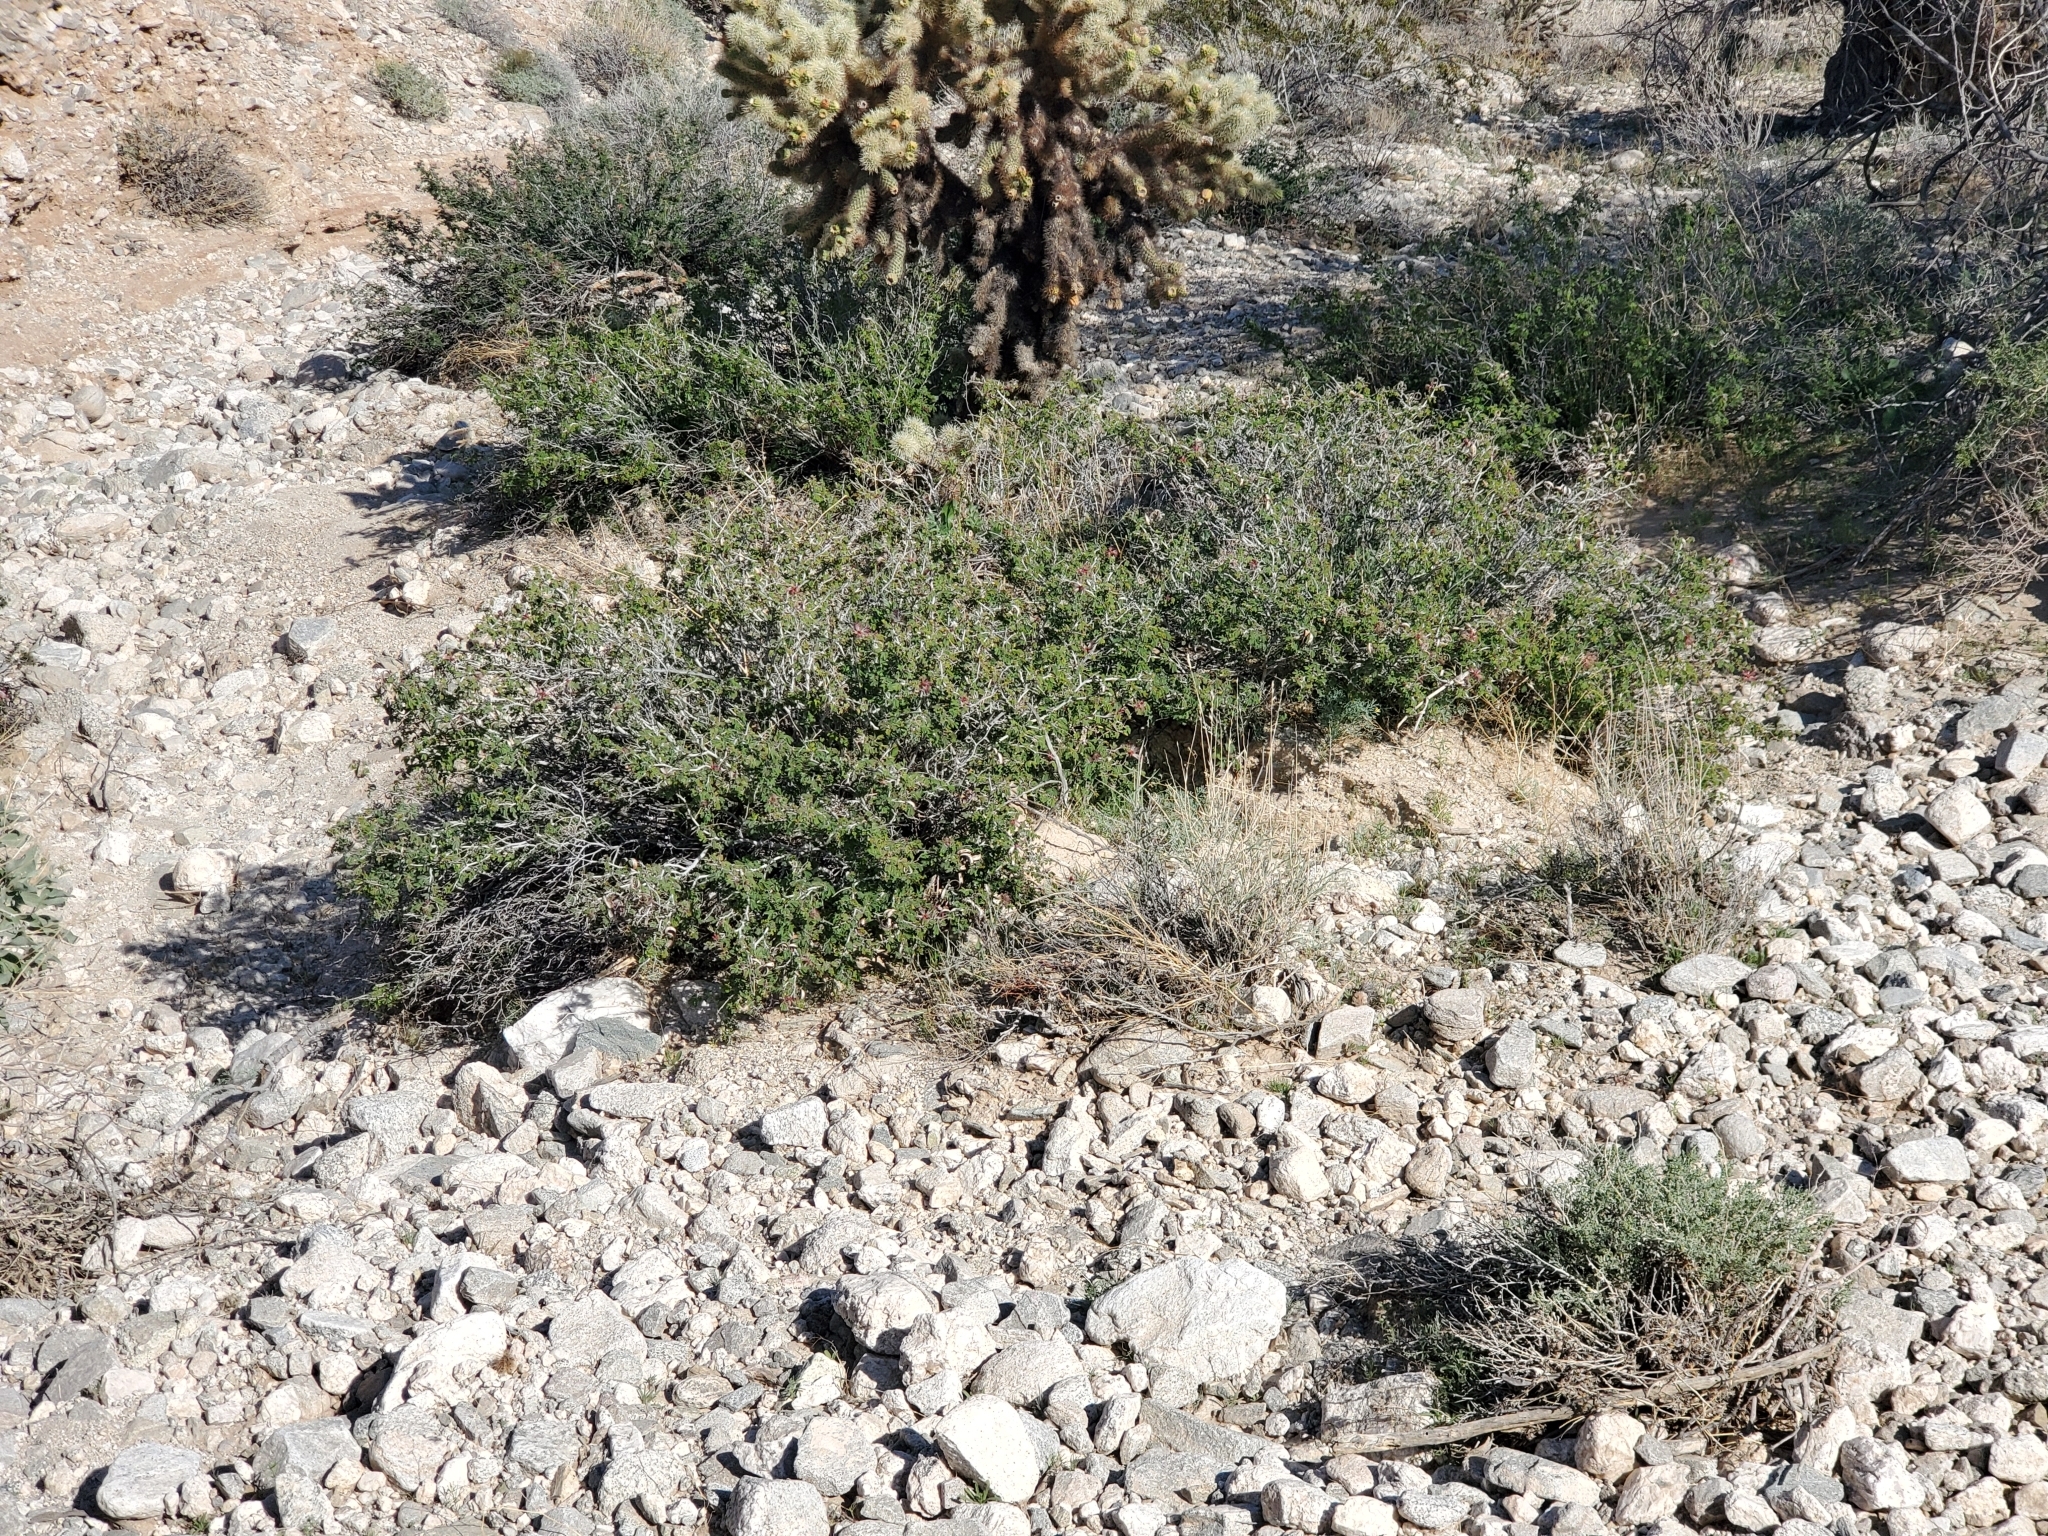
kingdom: Plantae
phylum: Tracheophyta
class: Magnoliopsida
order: Fabales
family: Fabaceae
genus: Calliandra
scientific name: Calliandra eriophylla
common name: Fairy-duster
